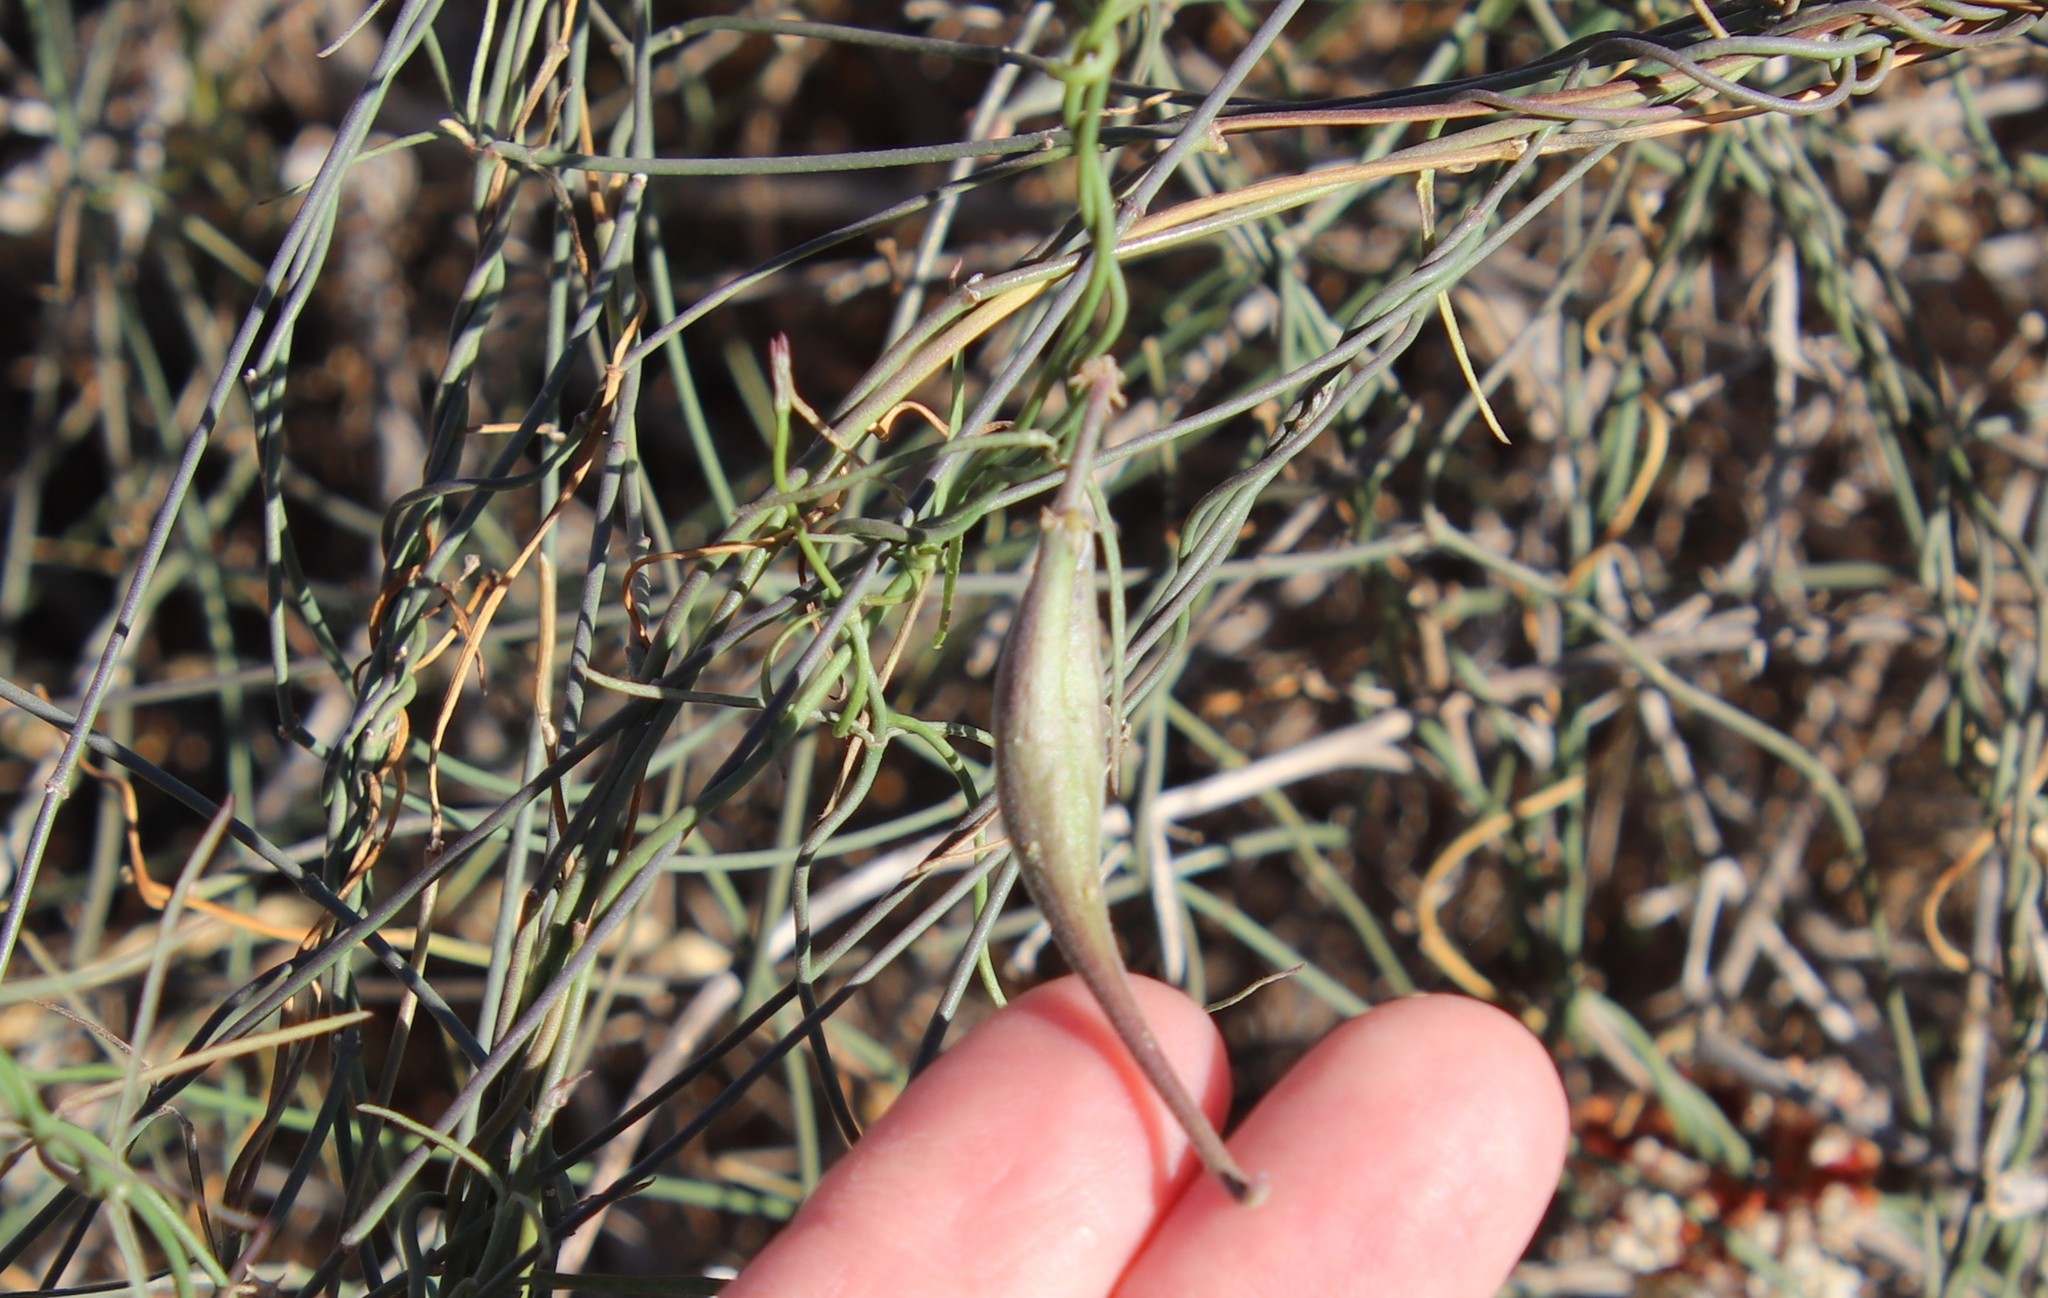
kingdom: Plantae
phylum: Tracheophyta
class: Magnoliopsida
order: Gentianales
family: Apocynaceae
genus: Funastrum
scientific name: Funastrum heterophyllum
